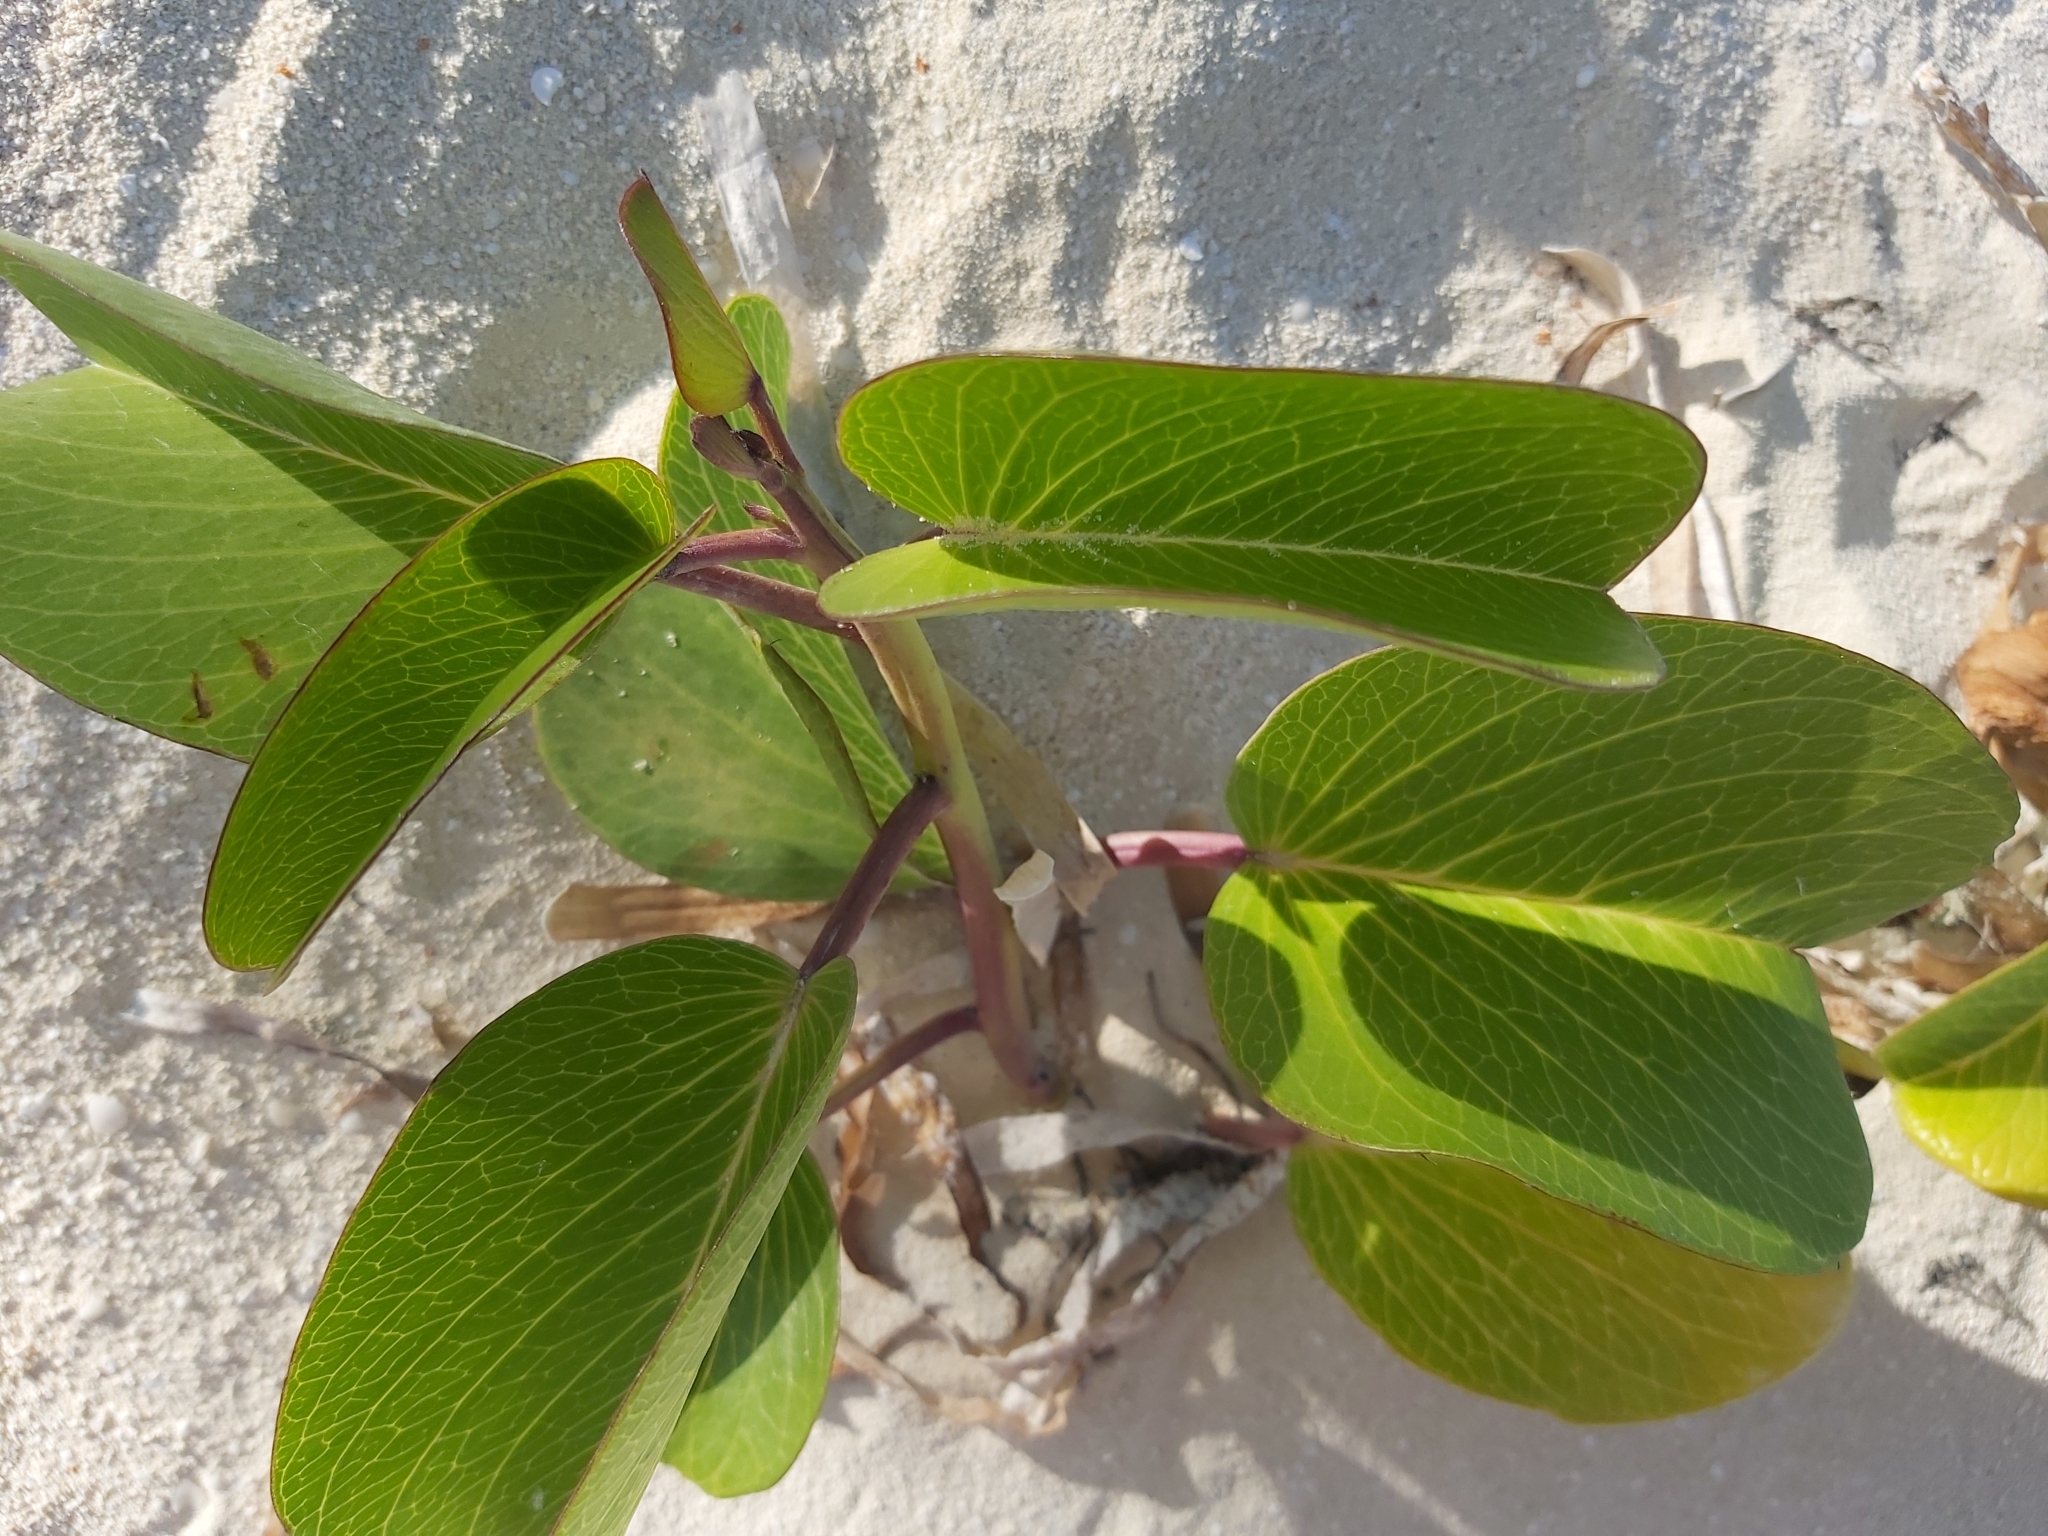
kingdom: Plantae
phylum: Tracheophyta
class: Magnoliopsida
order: Solanales
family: Convolvulaceae
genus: Ipomoea
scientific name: Ipomoea pes-caprae
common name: Beach morning glory
